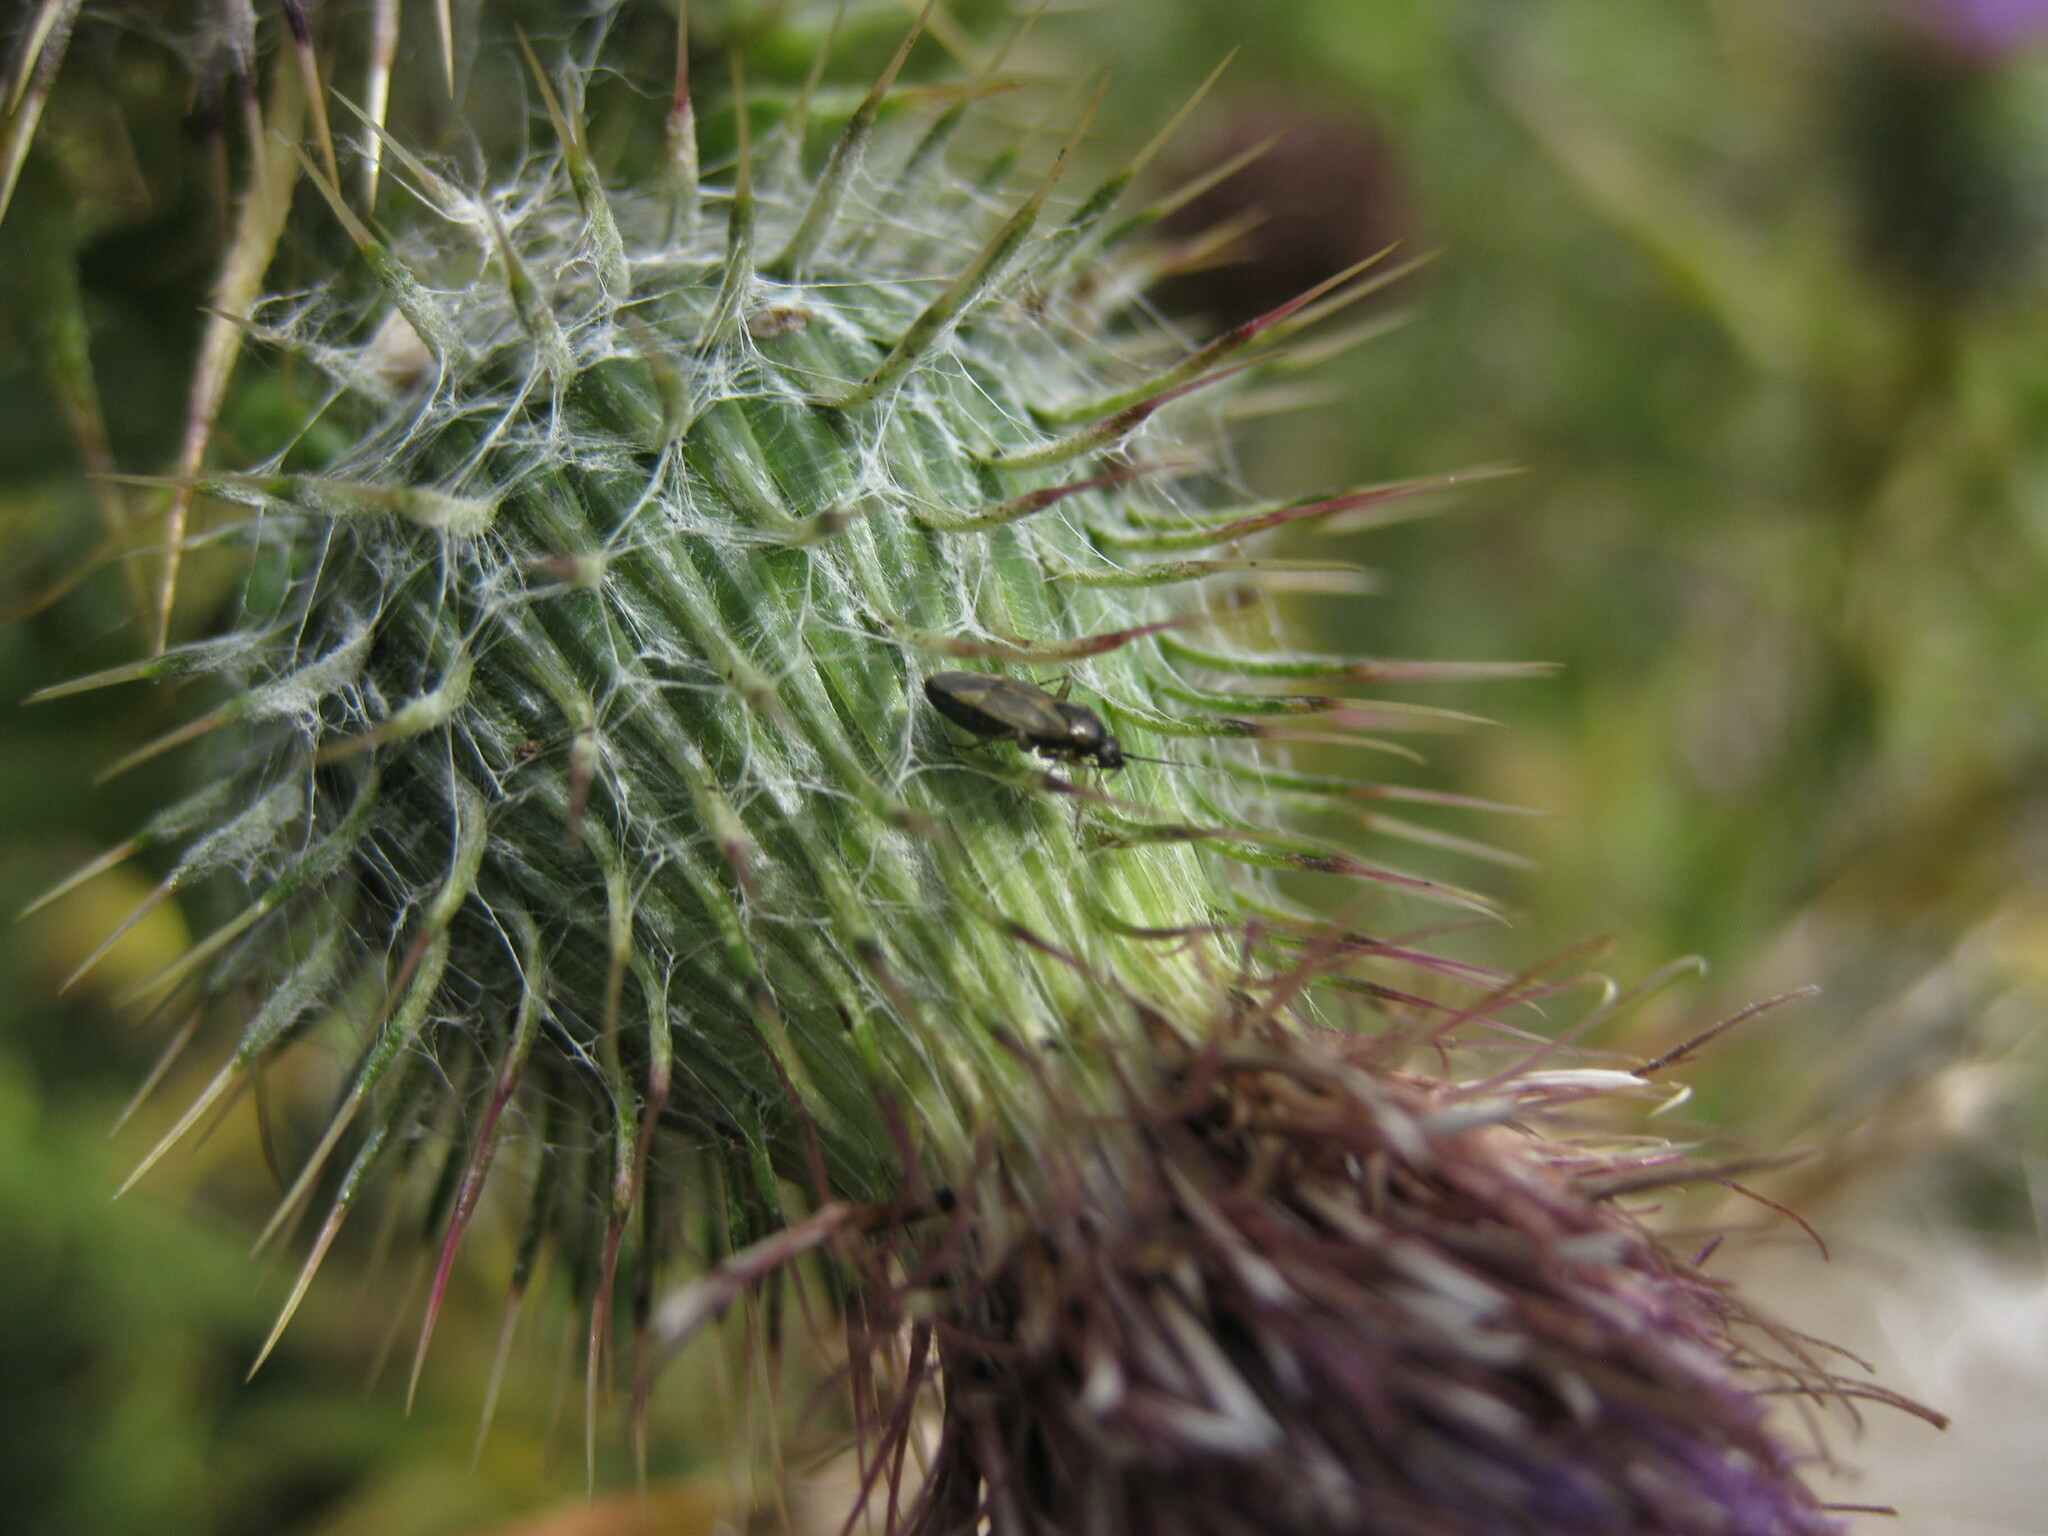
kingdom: Animalia
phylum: Arthropoda
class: Insecta
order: Hemiptera
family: Miridae
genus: Plagiognathus
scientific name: Plagiognathus arbustorum
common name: Plant bug
